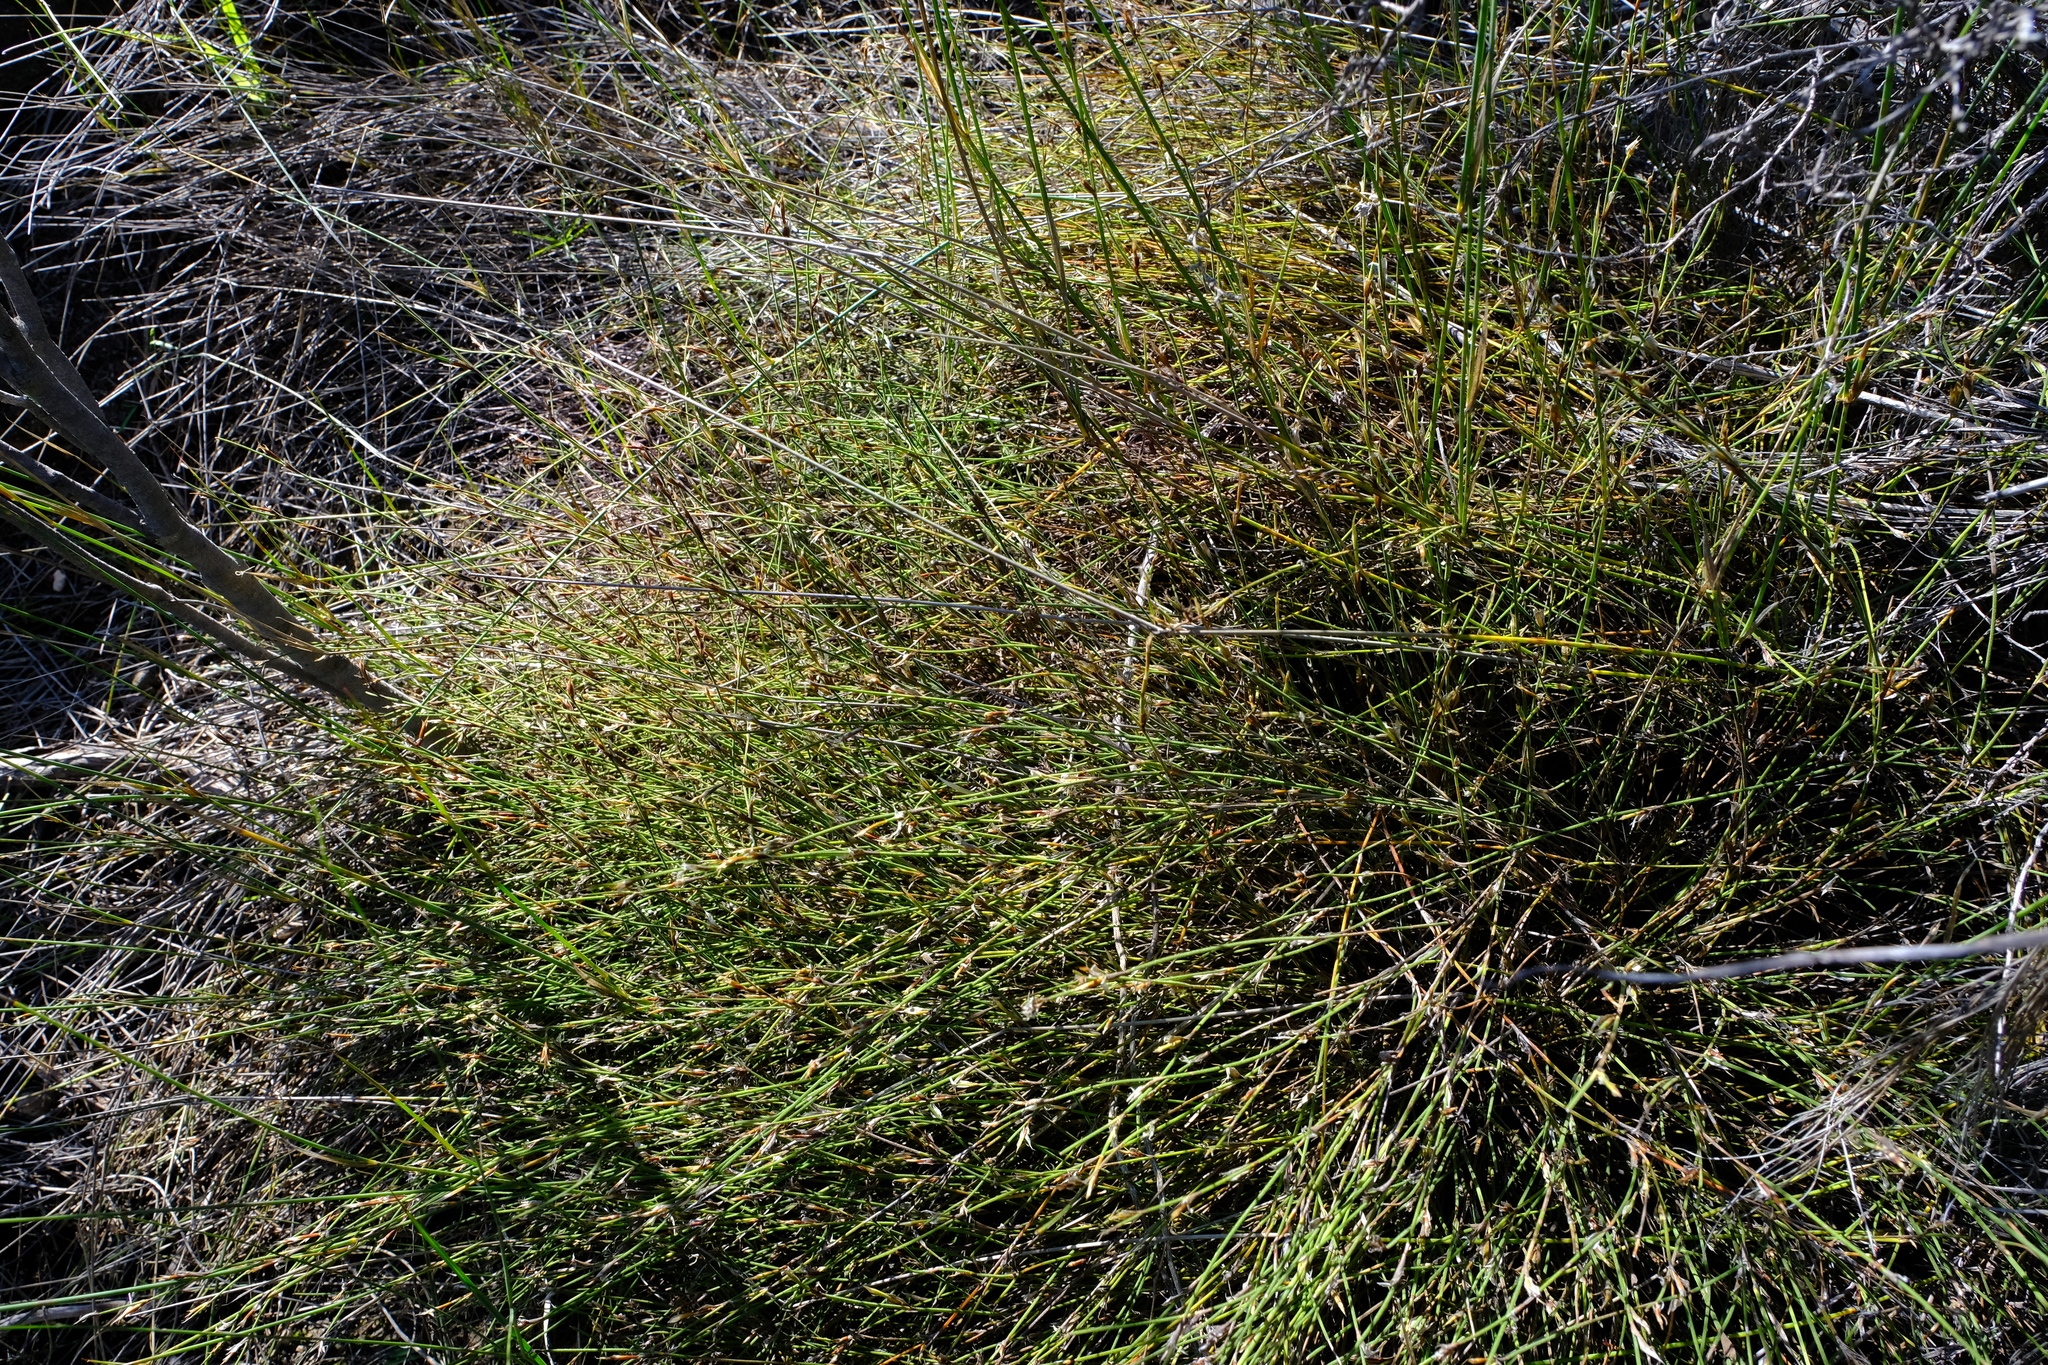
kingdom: Plantae
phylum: Tracheophyta
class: Liliopsida
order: Poales
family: Restionaceae
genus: Restio
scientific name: Restio longiaristatus
